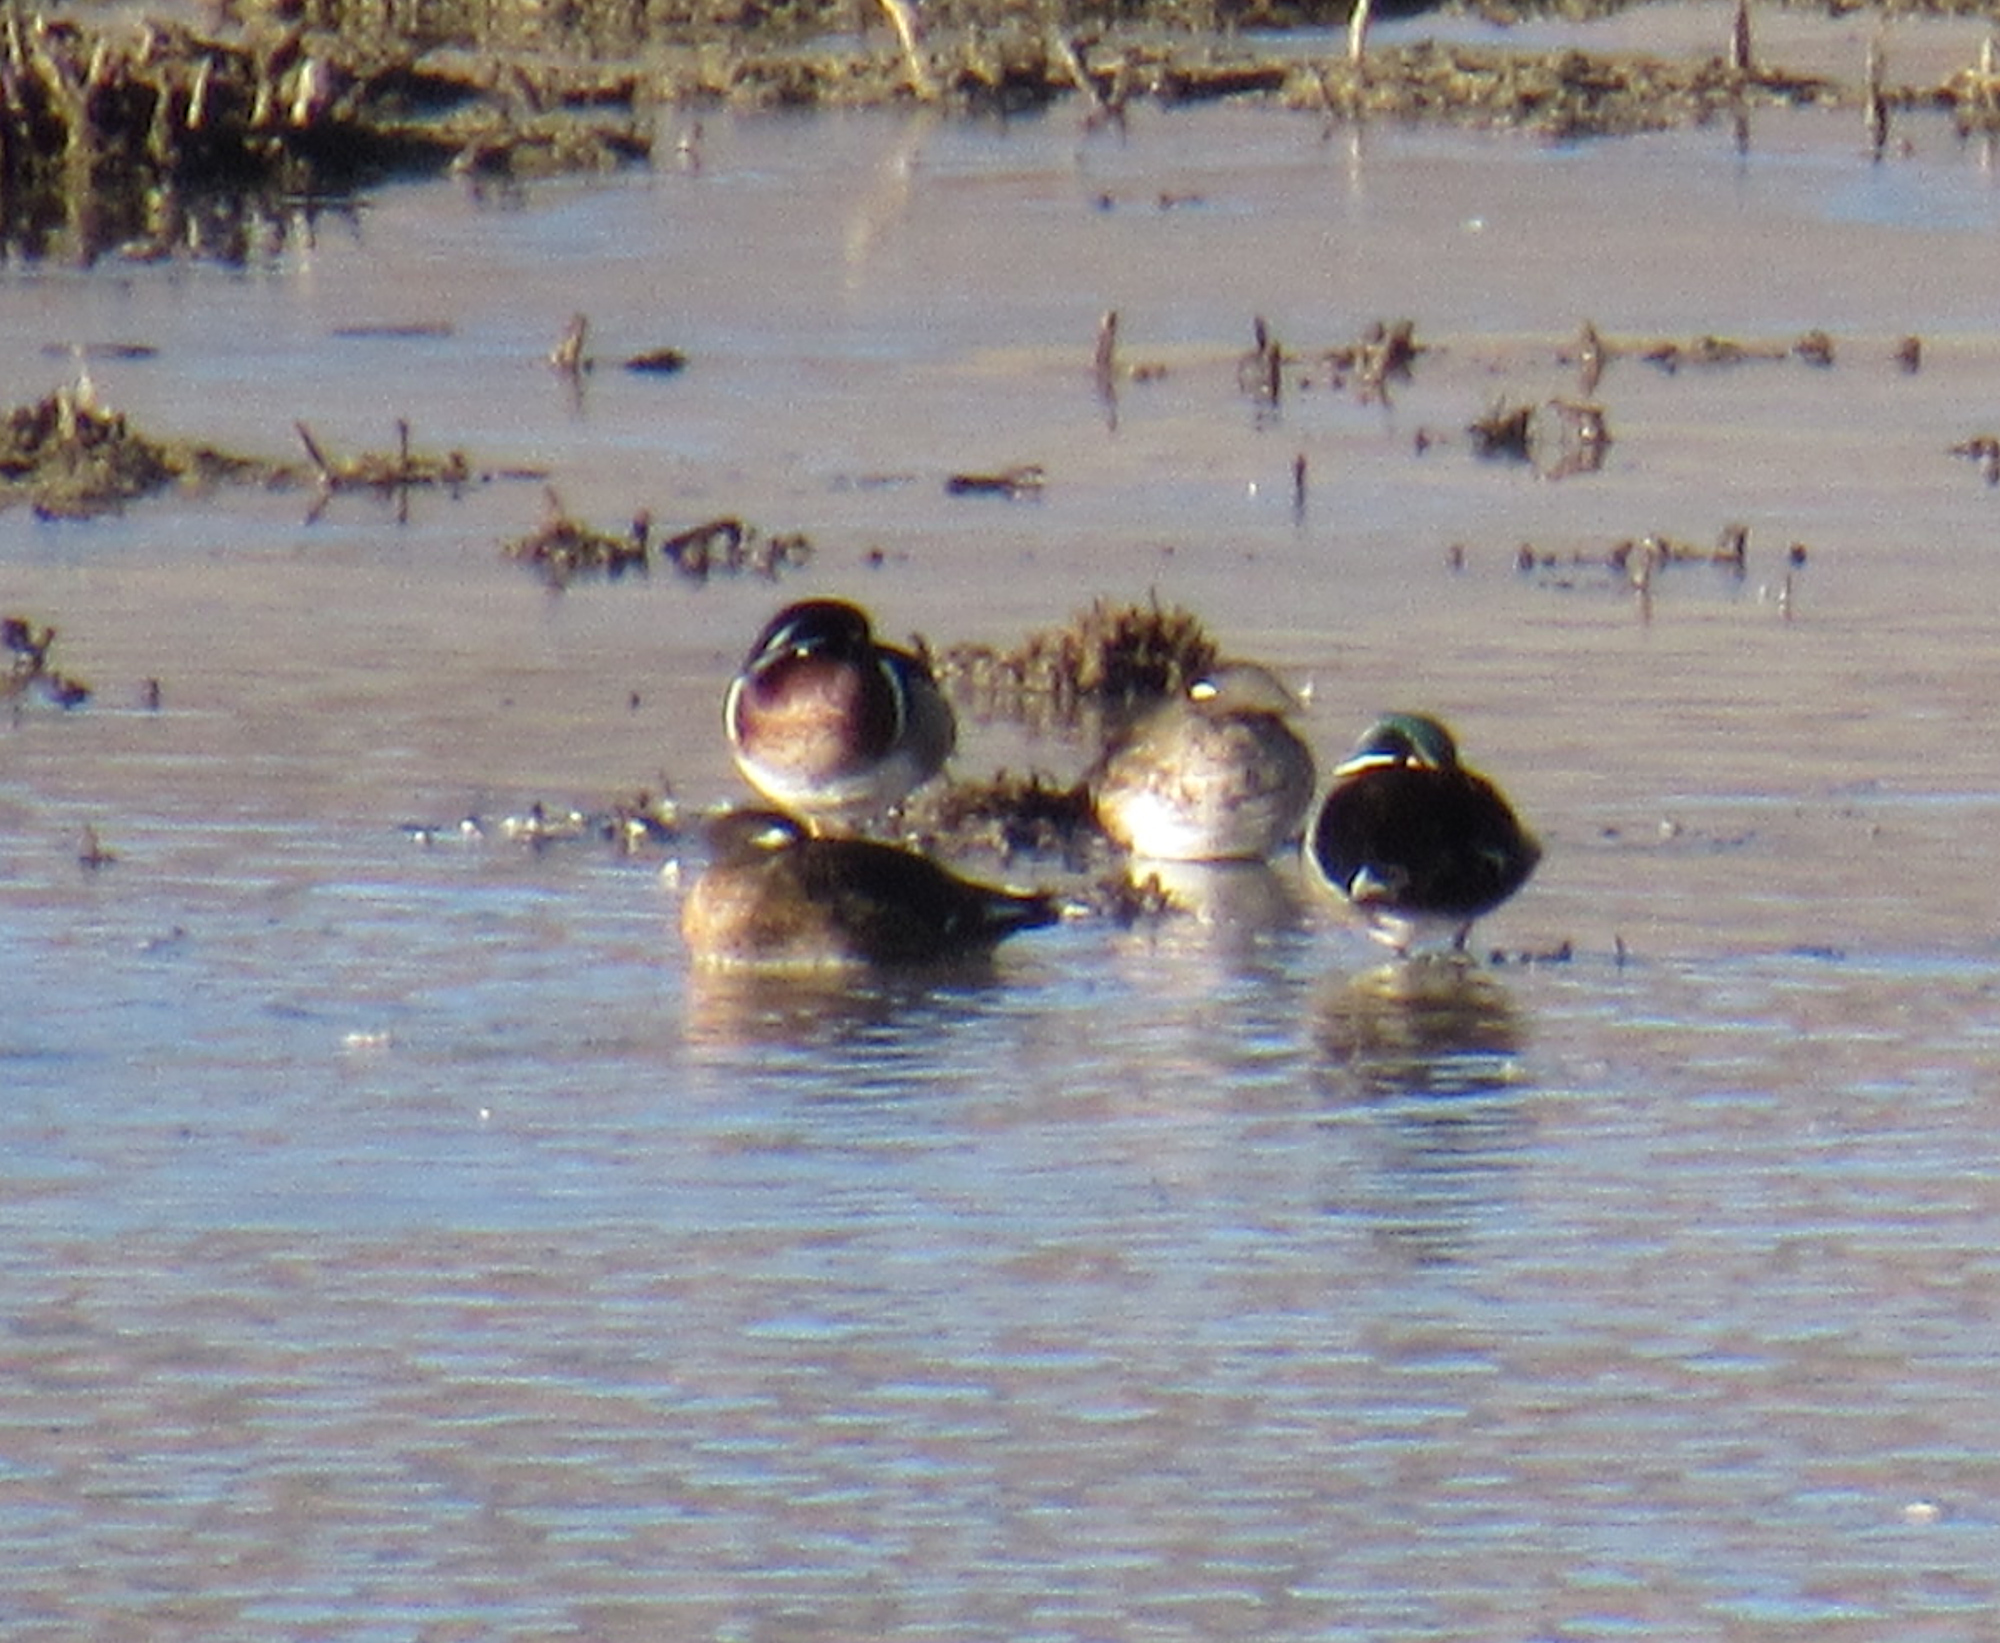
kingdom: Animalia
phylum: Chordata
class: Aves
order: Anseriformes
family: Anatidae
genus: Aix
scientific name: Aix sponsa
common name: Wood duck
